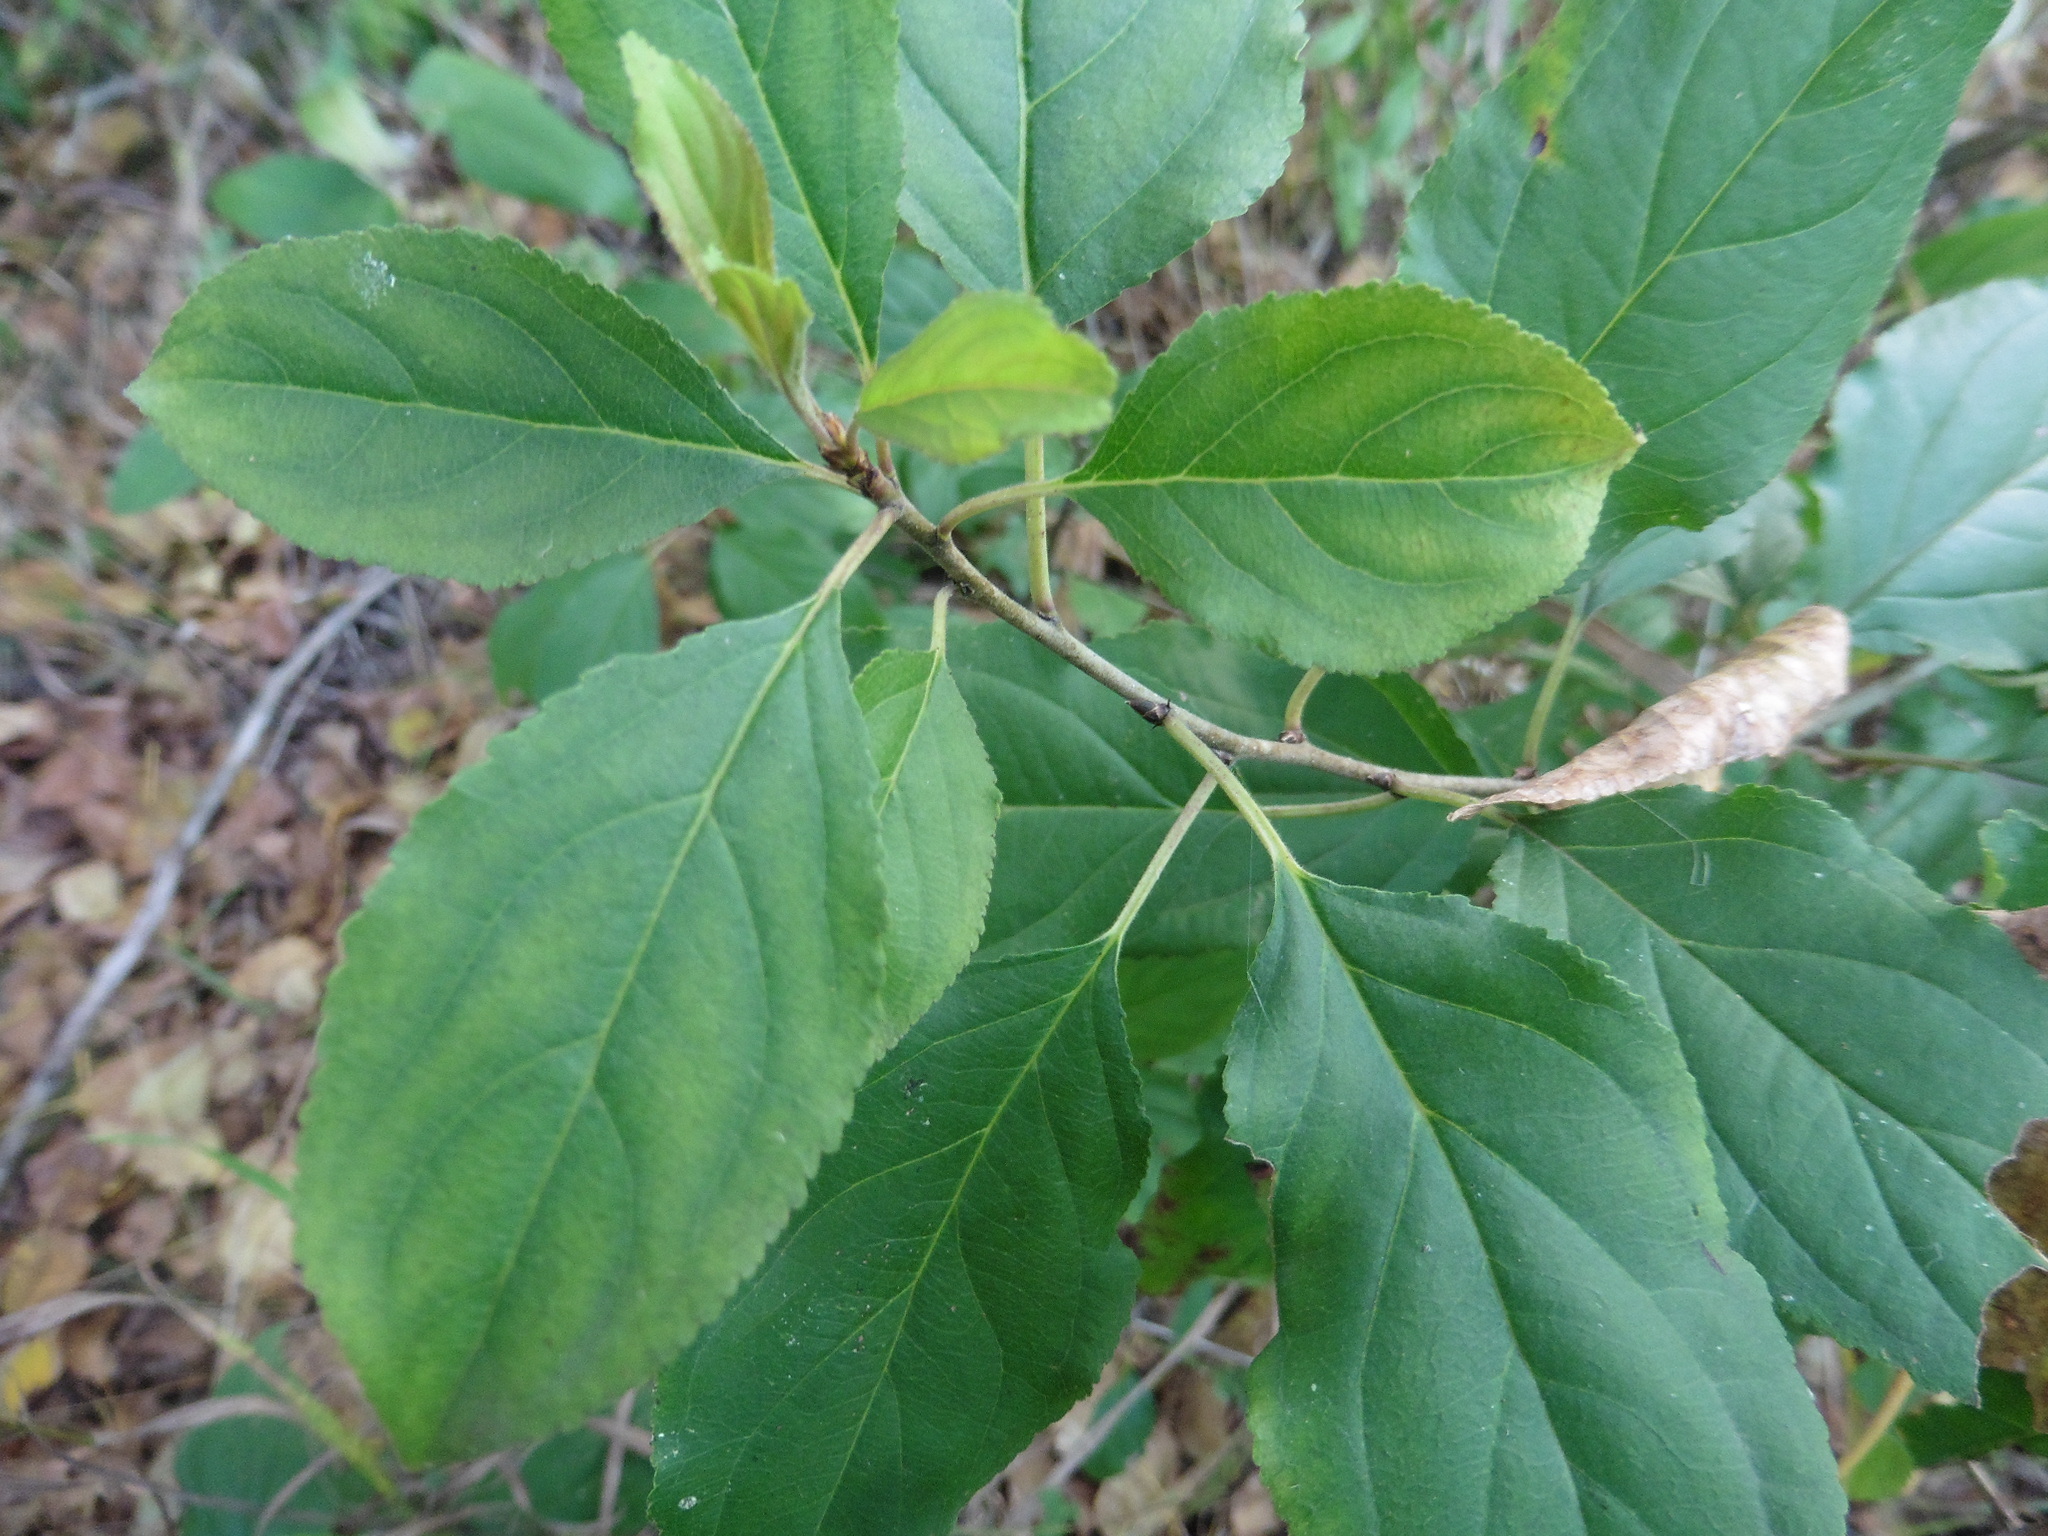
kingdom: Plantae
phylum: Tracheophyta
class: Magnoliopsida
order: Rosales
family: Rhamnaceae
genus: Rhamnus
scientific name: Rhamnus cathartica
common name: Common buckthorn
